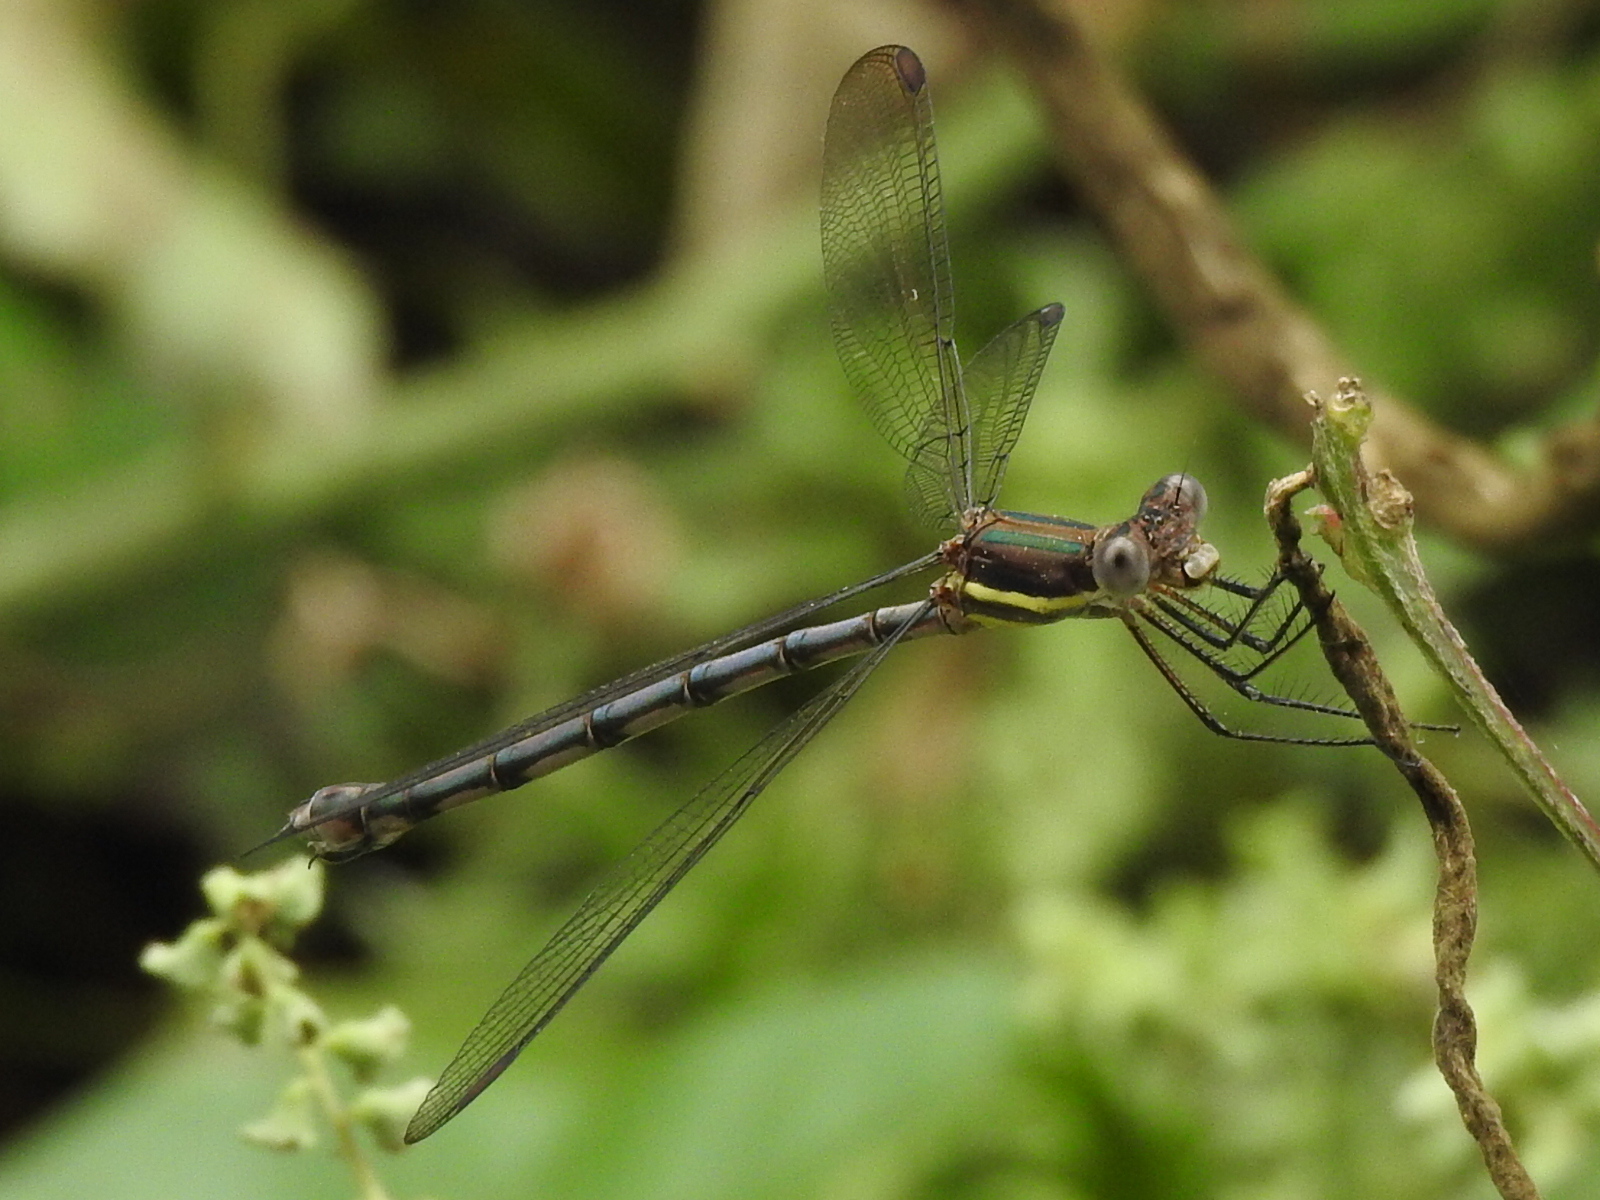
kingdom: Animalia
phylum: Arthropoda
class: Insecta
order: Odonata
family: Lestidae
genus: Archilestes
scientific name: Archilestes grandis
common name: Great spreadwing
